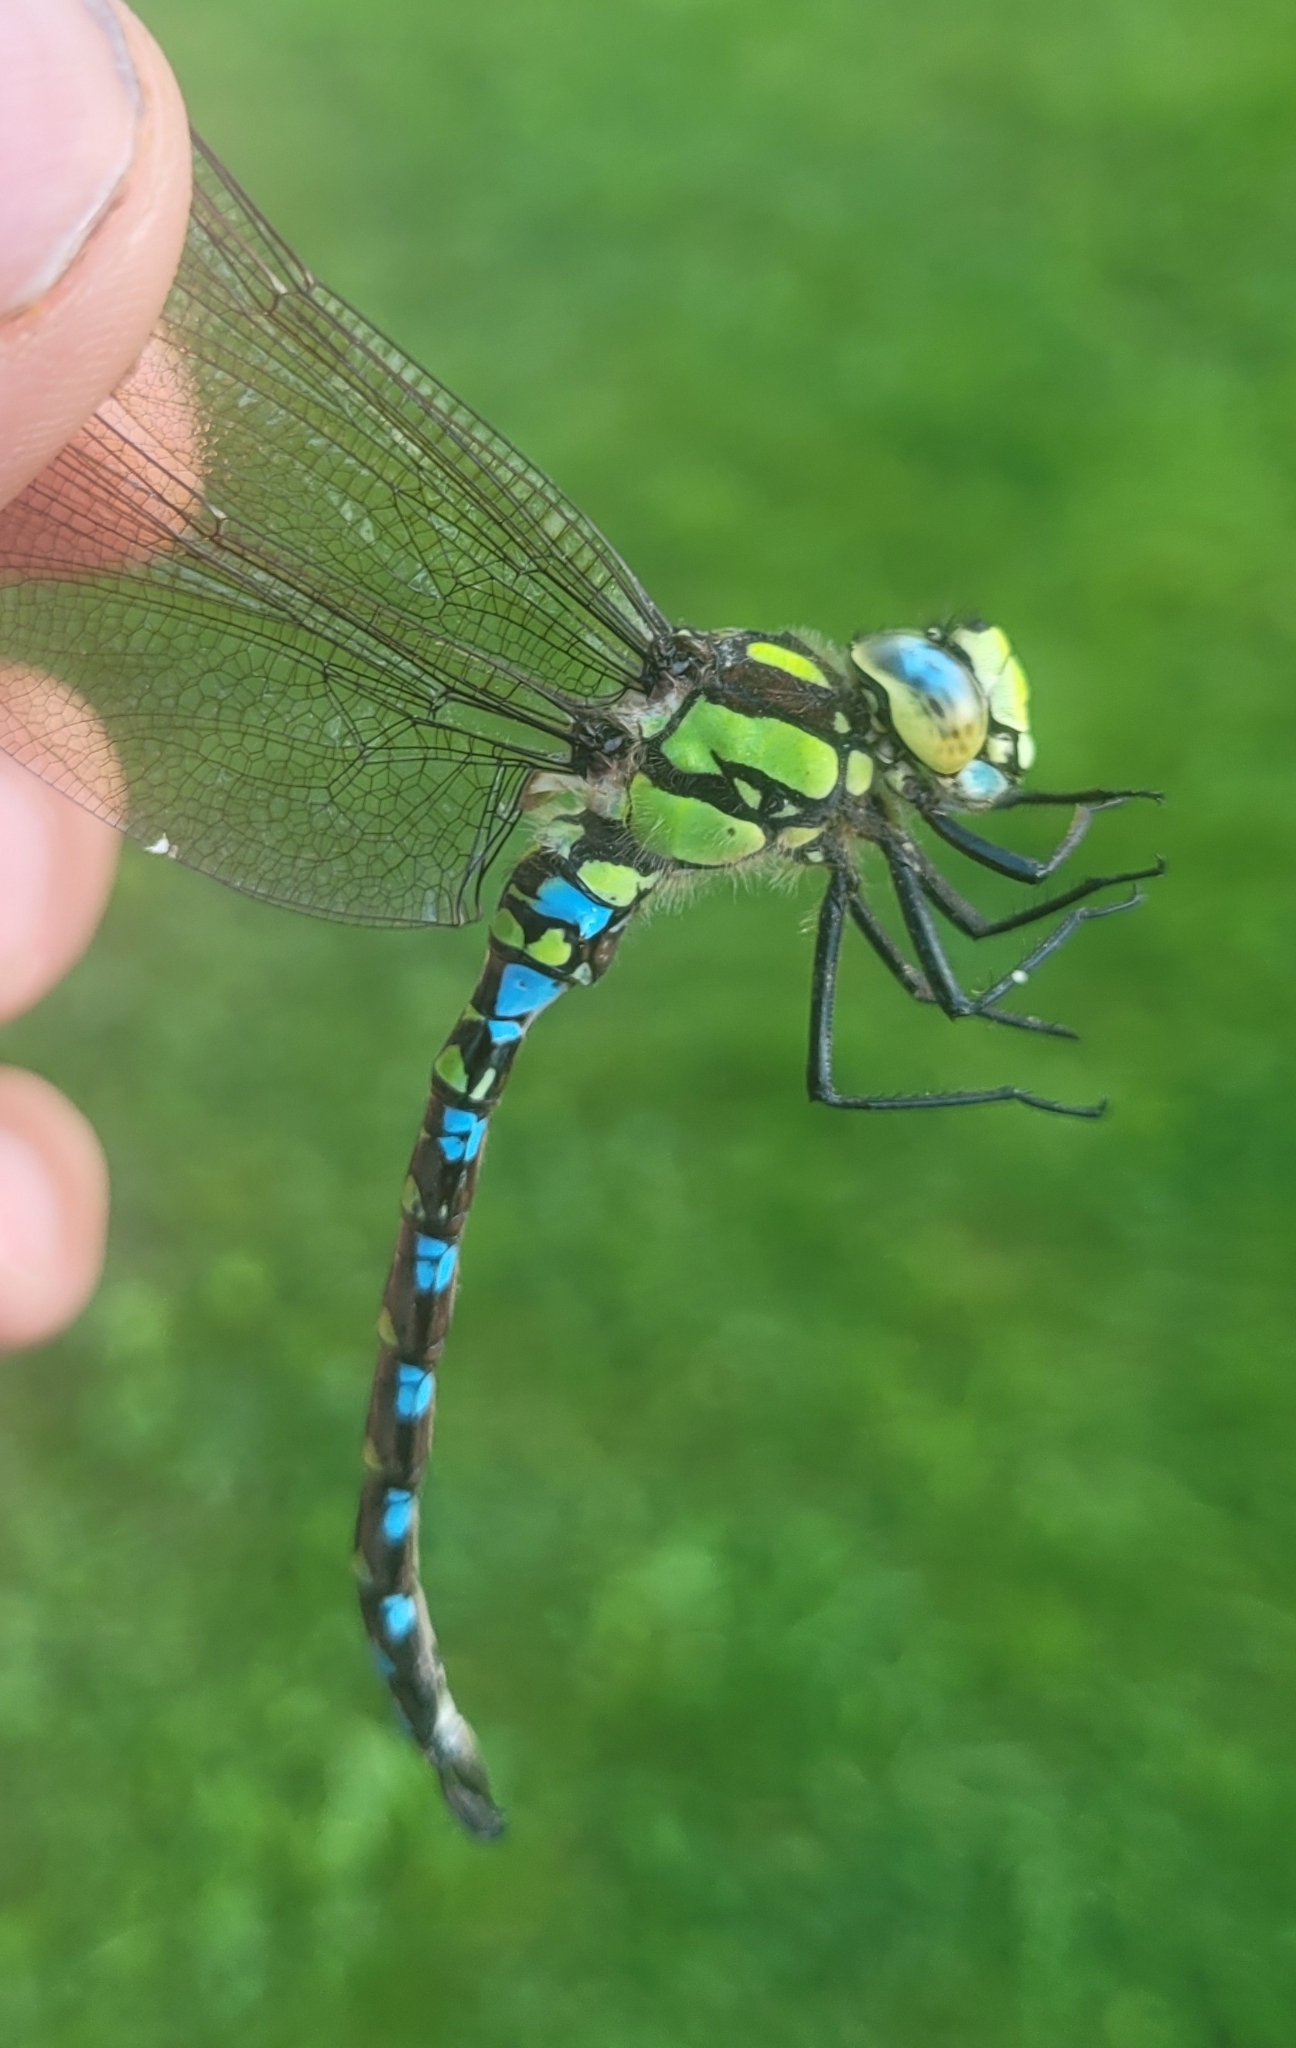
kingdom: Animalia
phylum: Arthropoda
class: Insecta
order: Odonata
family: Aeshnidae
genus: Aeshna
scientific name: Aeshna cyanea
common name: Southern hawker
